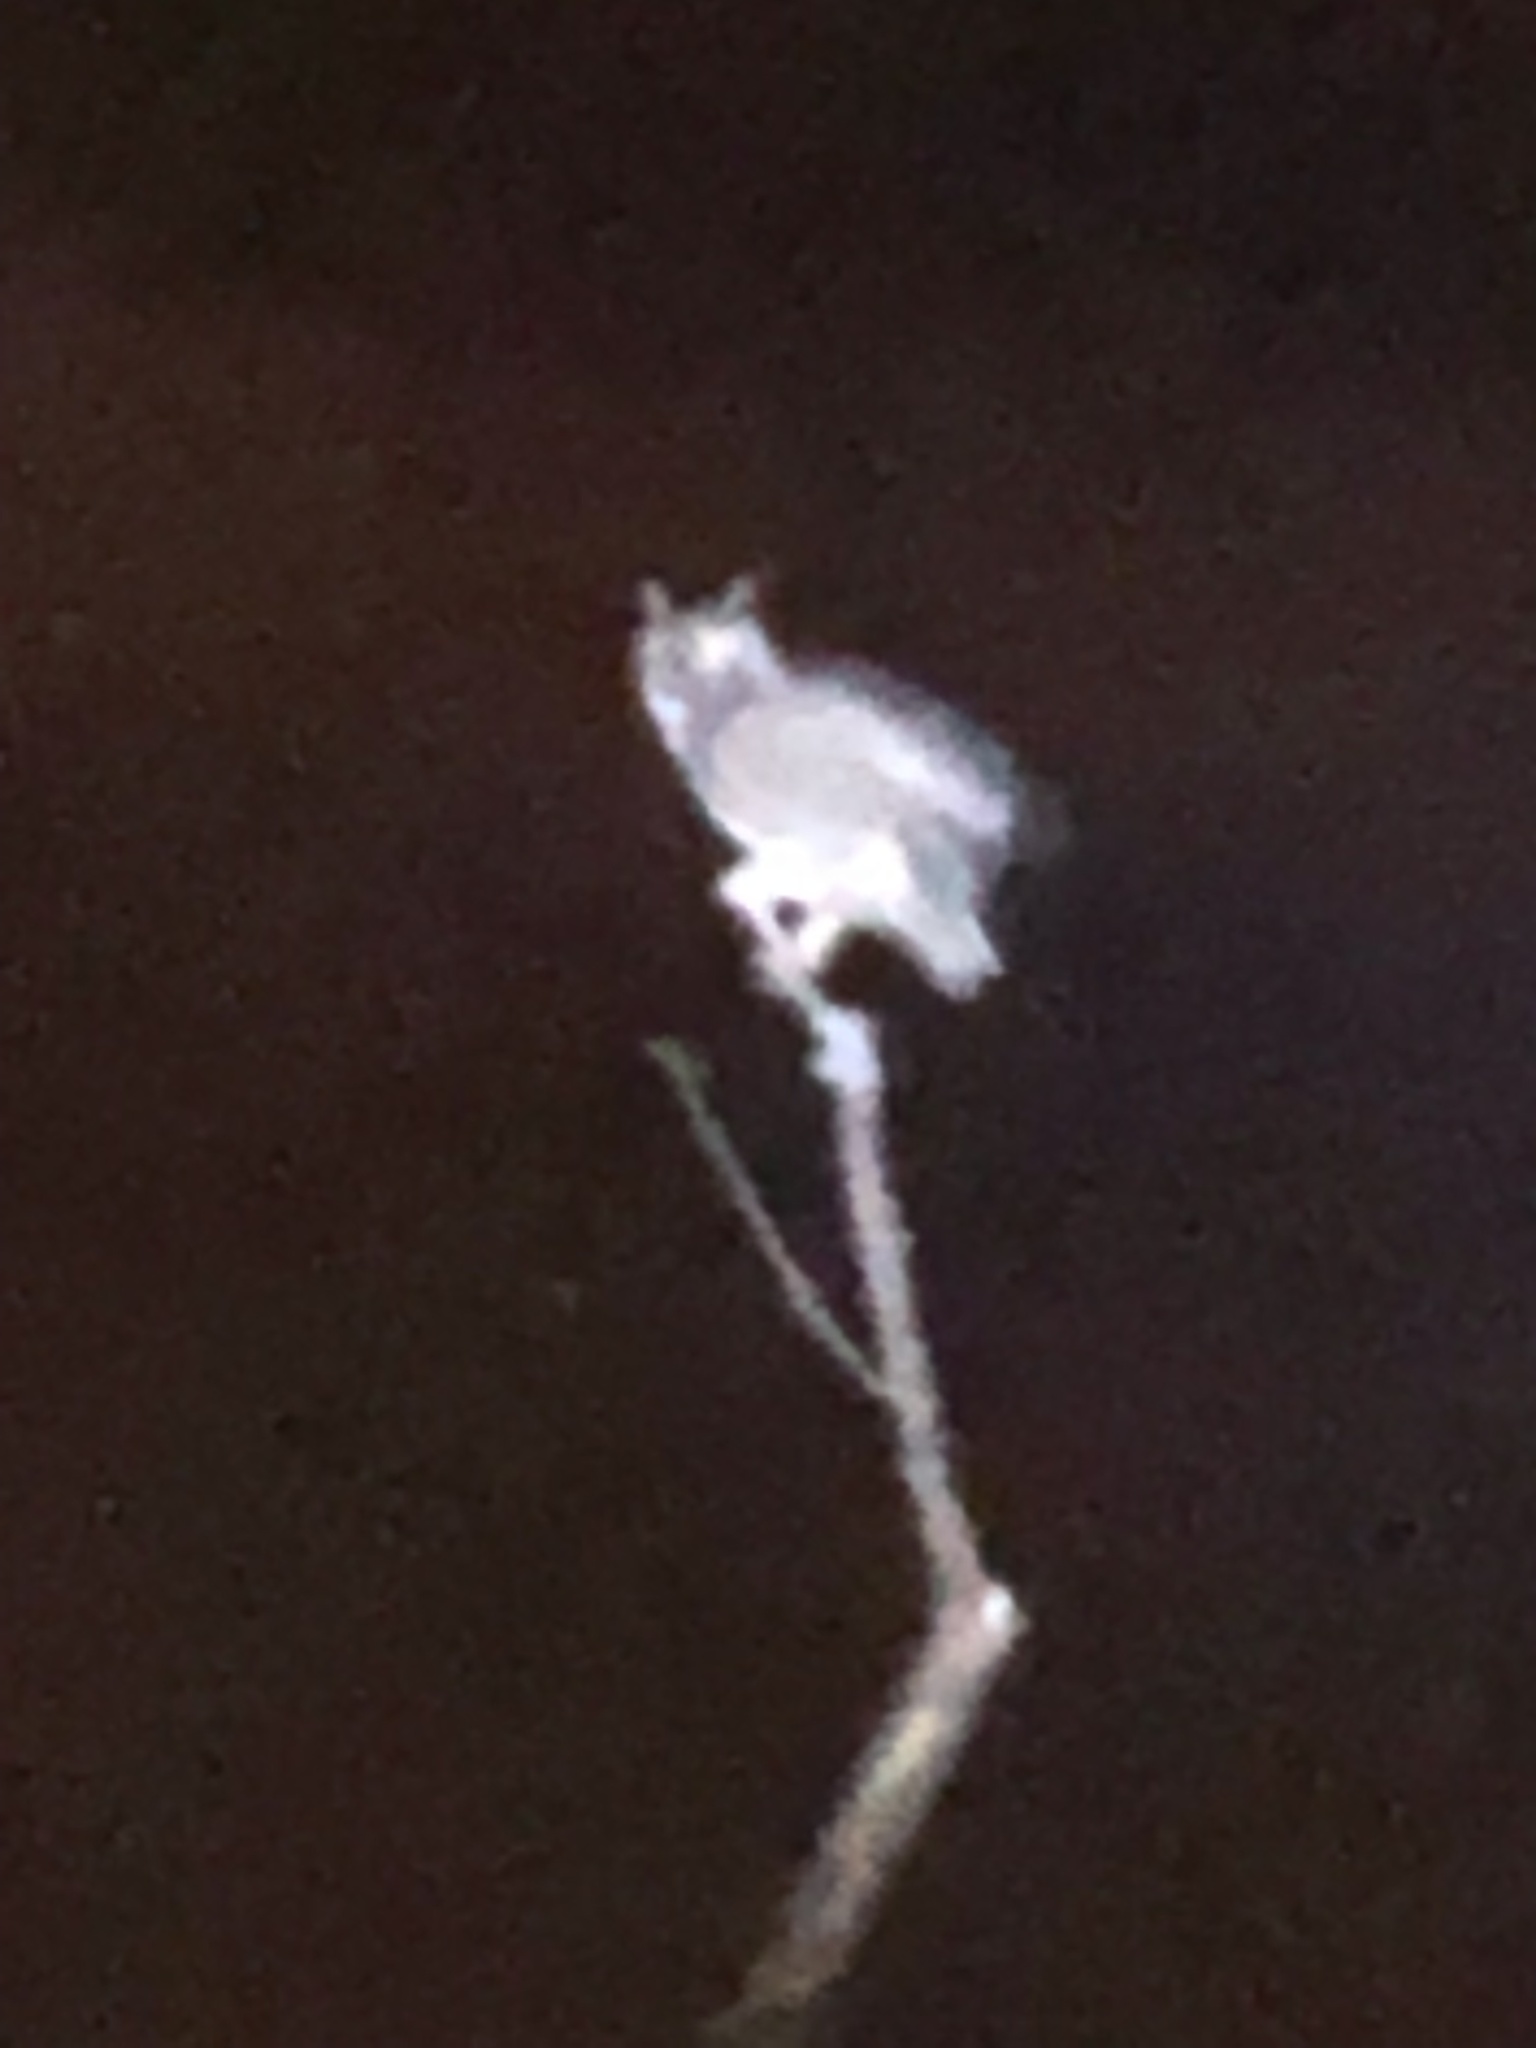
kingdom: Animalia
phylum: Chordata
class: Aves
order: Strigiformes
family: Strigidae
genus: Bubo
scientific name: Bubo virginianus
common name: Great horned owl
